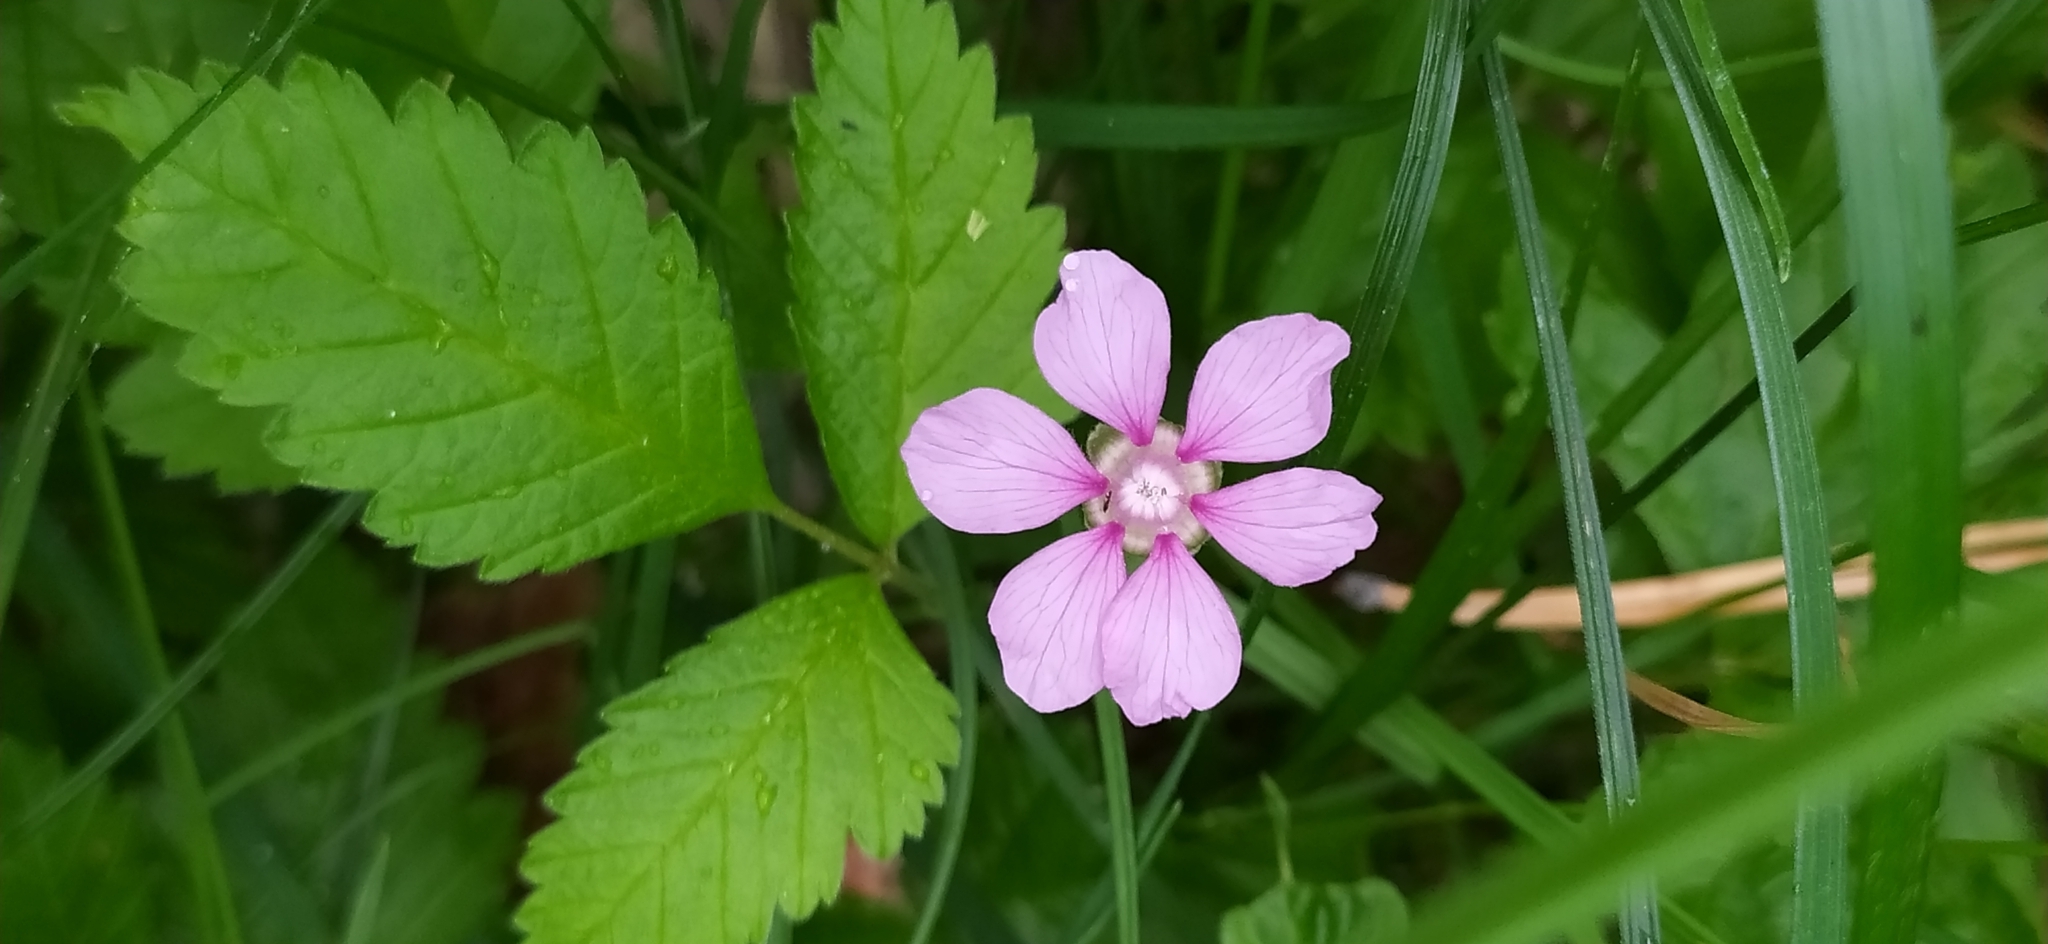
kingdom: Plantae
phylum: Tracheophyta
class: Magnoliopsida
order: Rosales
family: Rosaceae
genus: Rubus
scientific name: Rubus arcticus
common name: Arctic bramble
